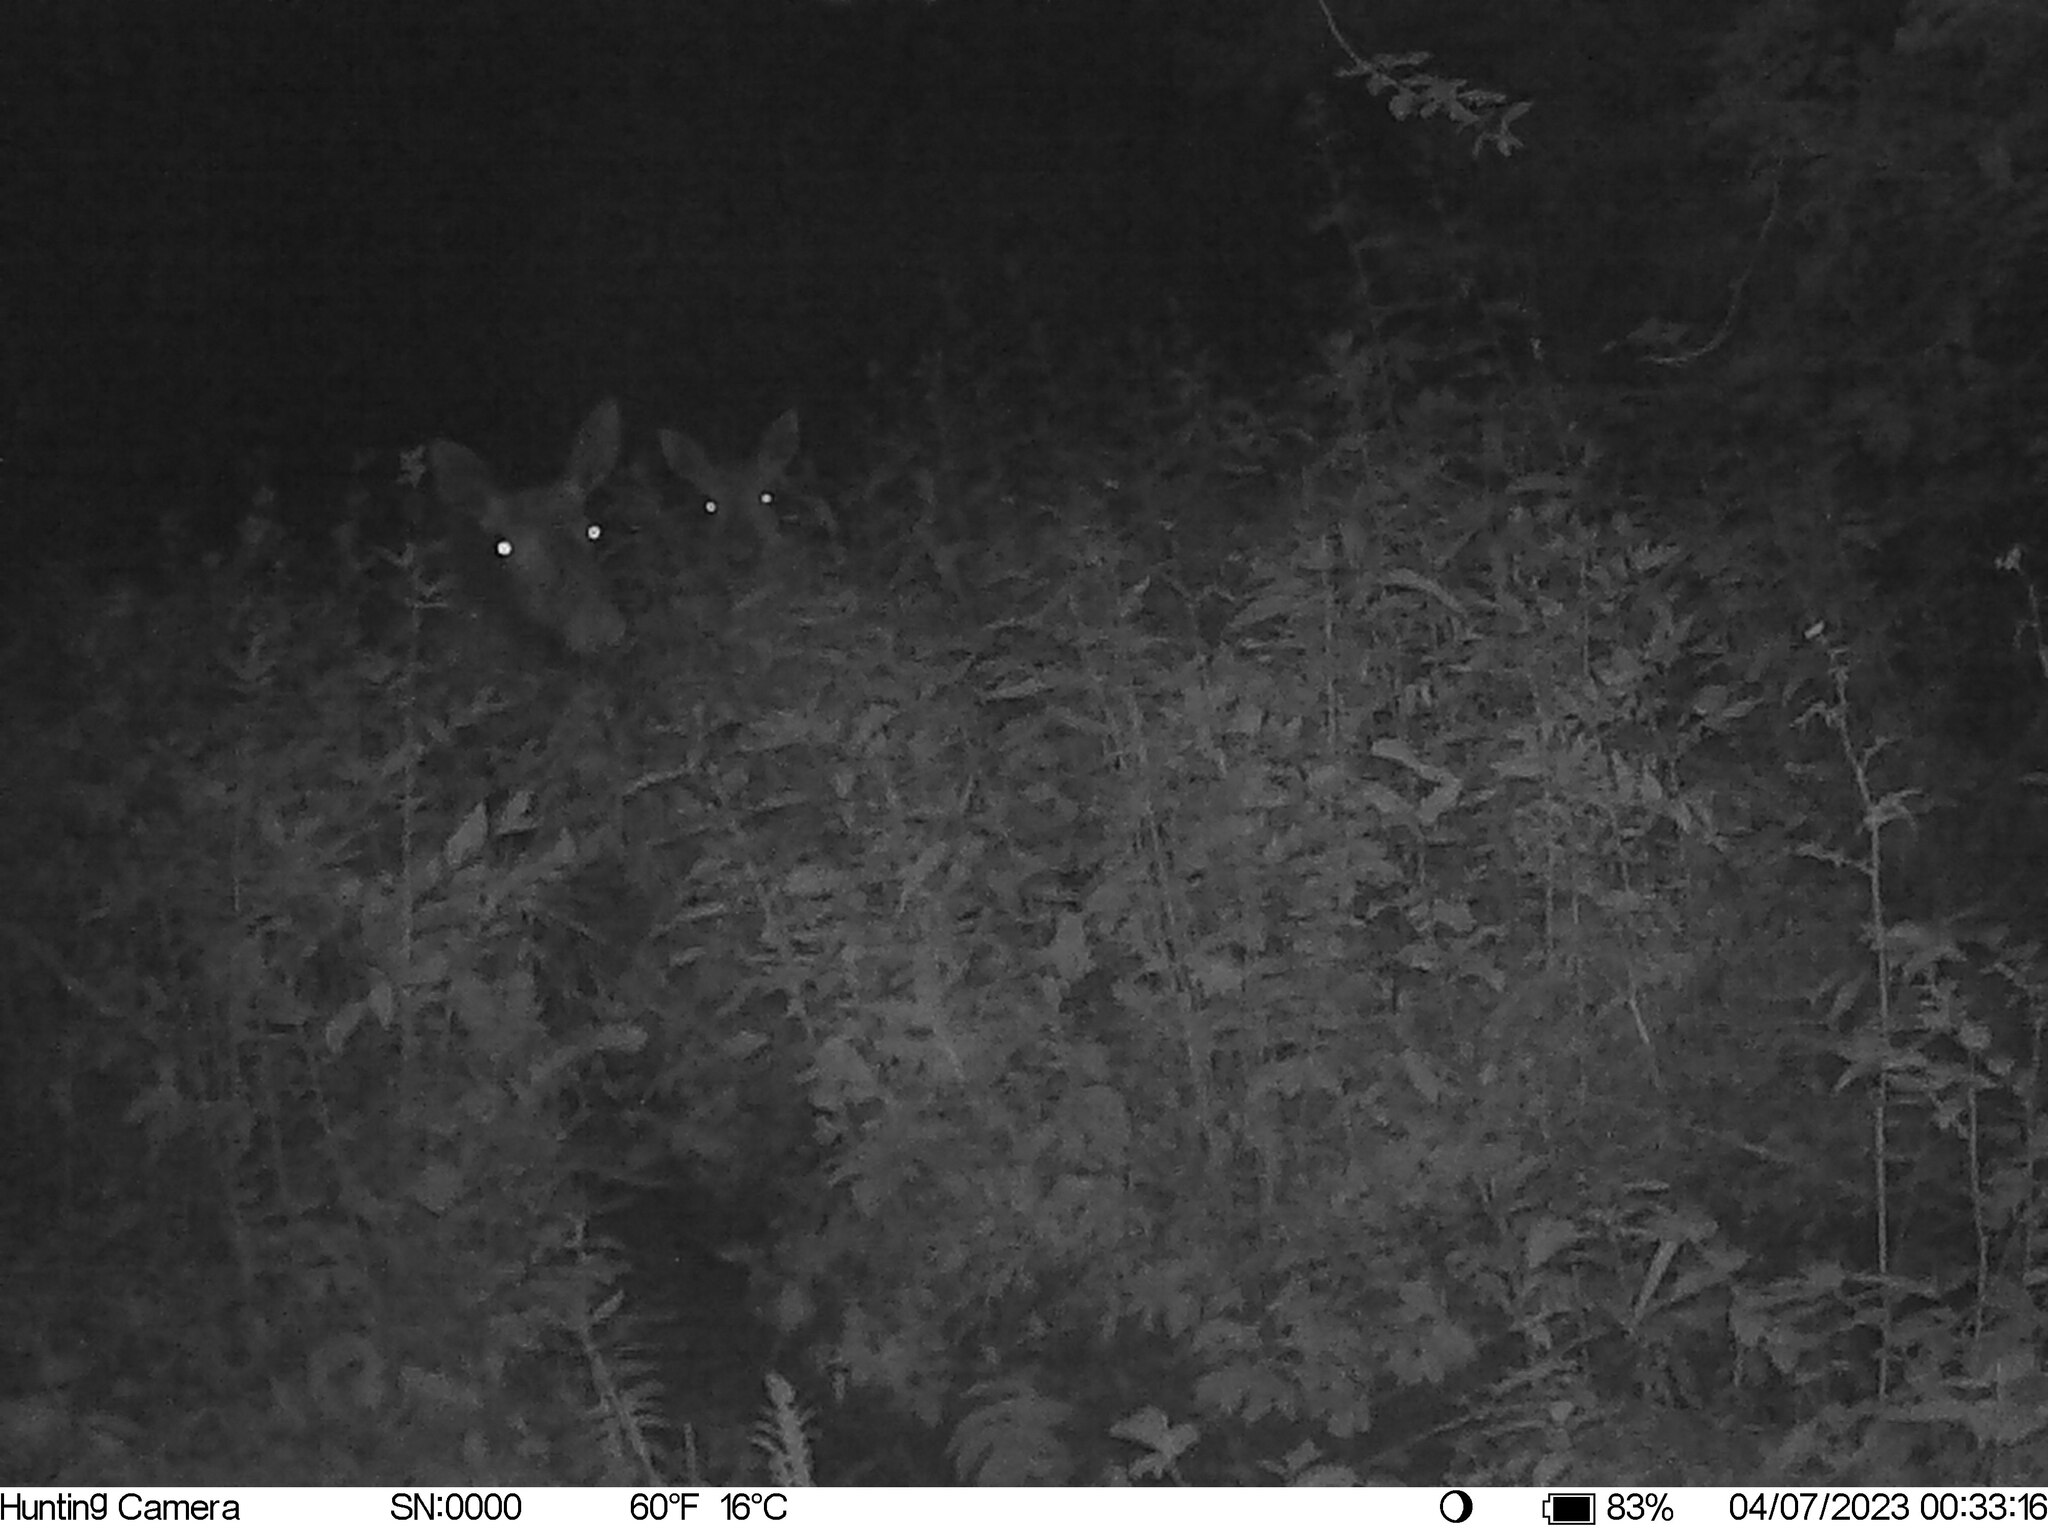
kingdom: Animalia
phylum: Chordata
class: Mammalia
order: Artiodactyla
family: Cervidae
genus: Alces
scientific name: Alces alces
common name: Moose
